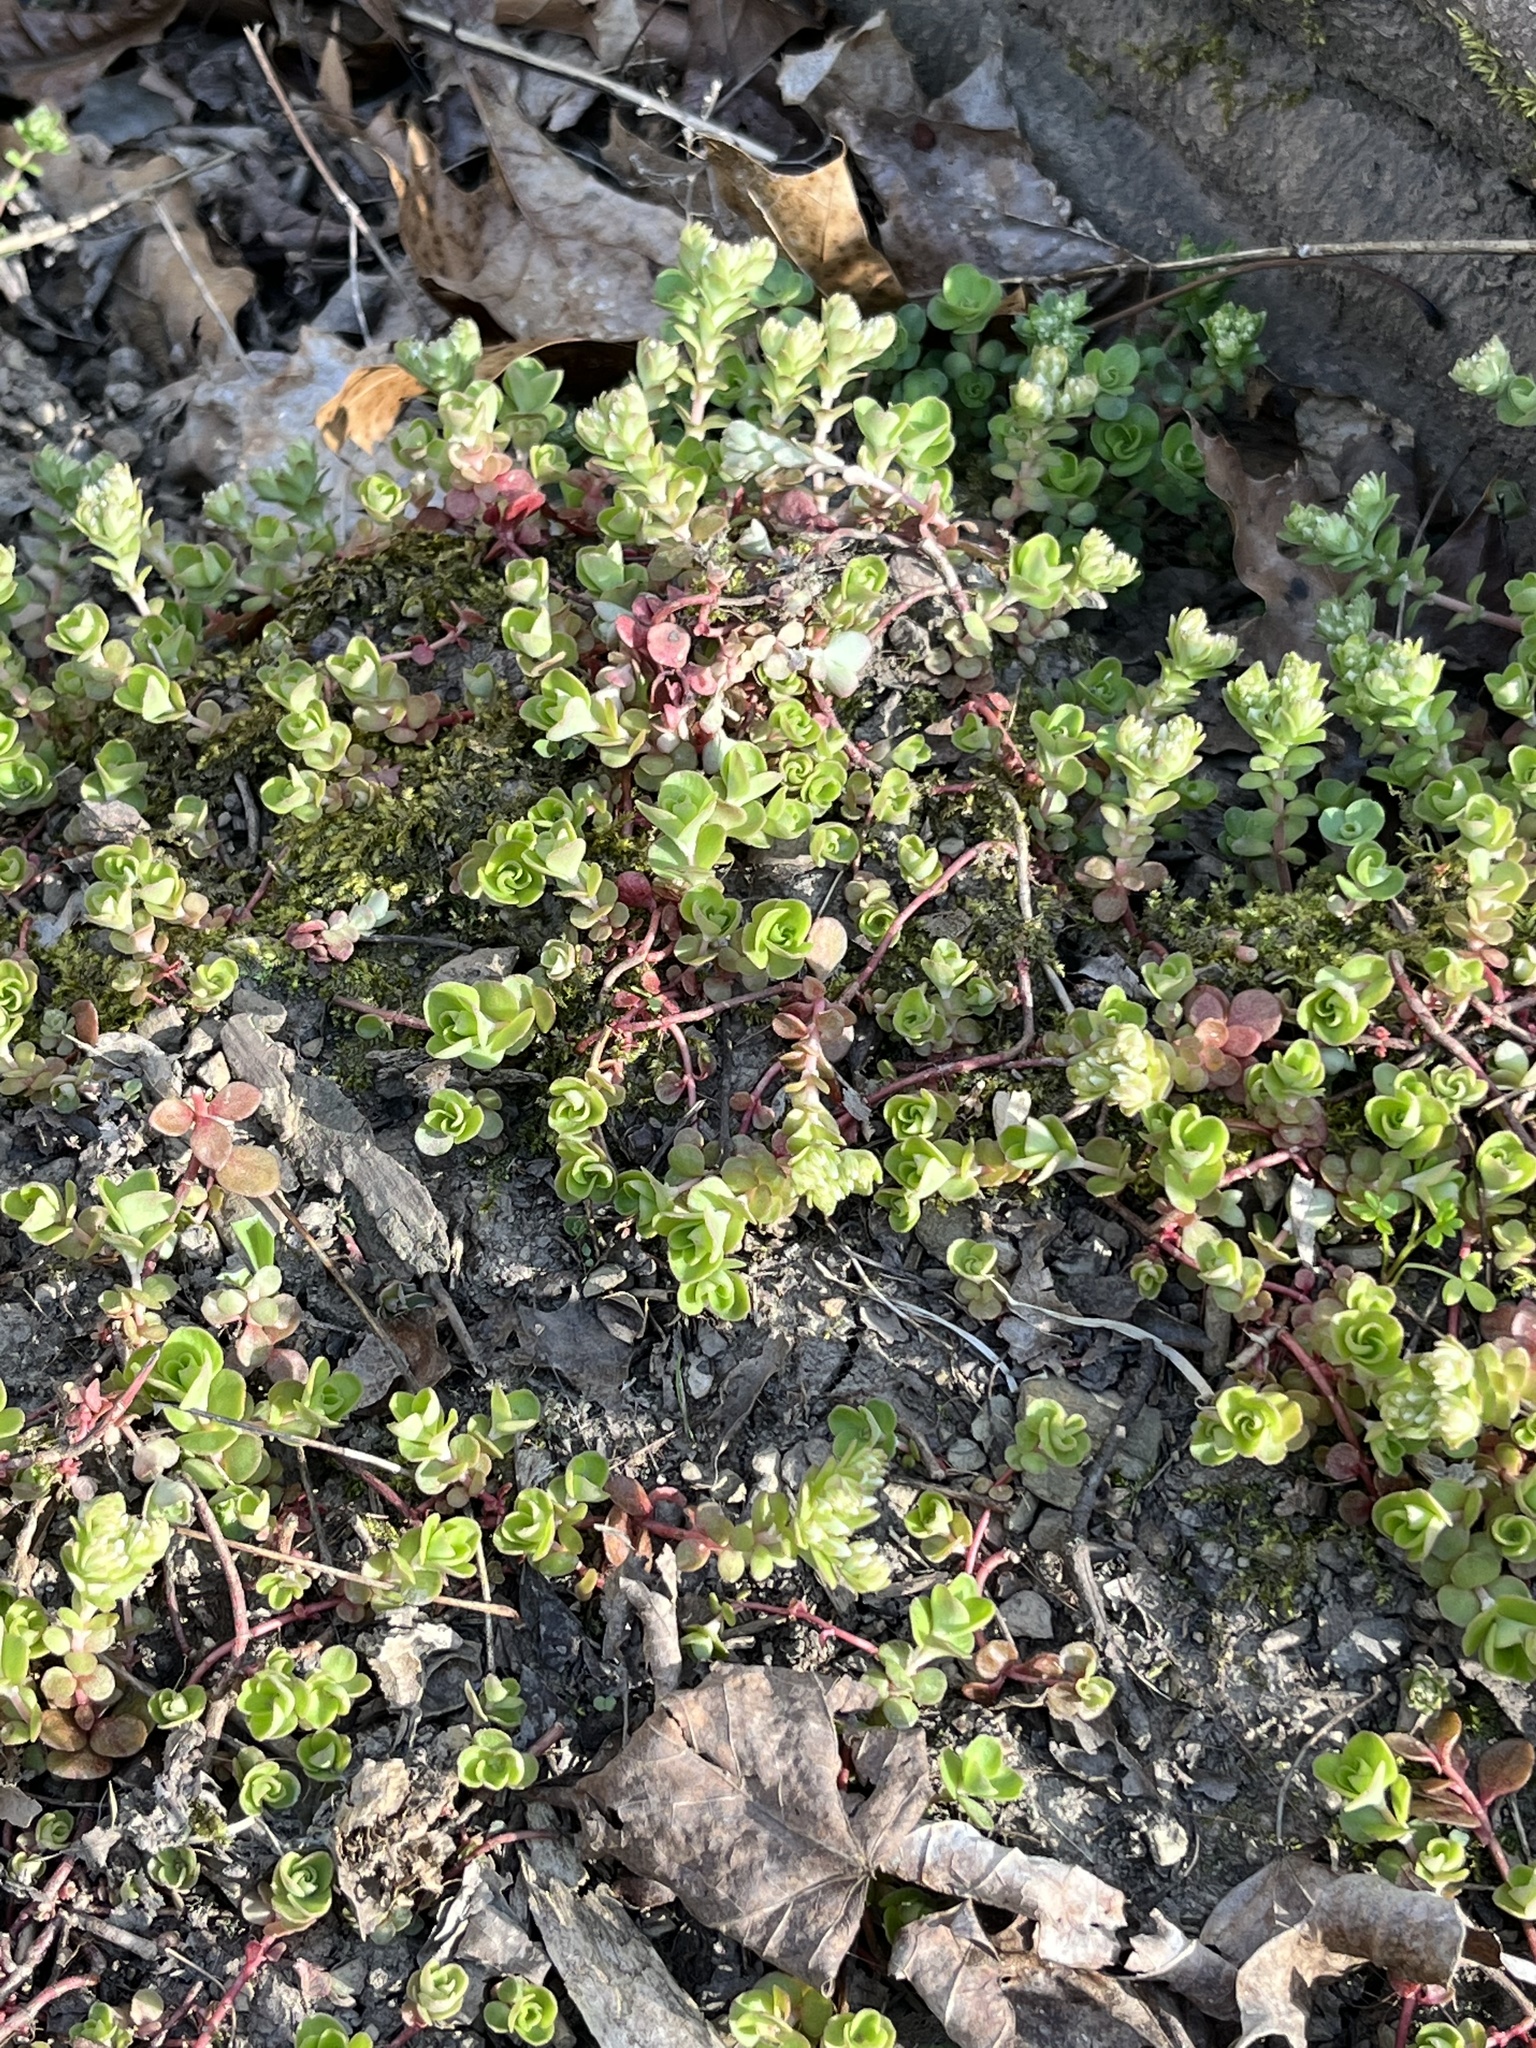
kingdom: Plantae
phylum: Tracheophyta
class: Magnoliopsida
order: Saxifragales
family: Crassulaceae
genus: Sedum
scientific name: Sedum ternatum
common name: Wild stonecrop
